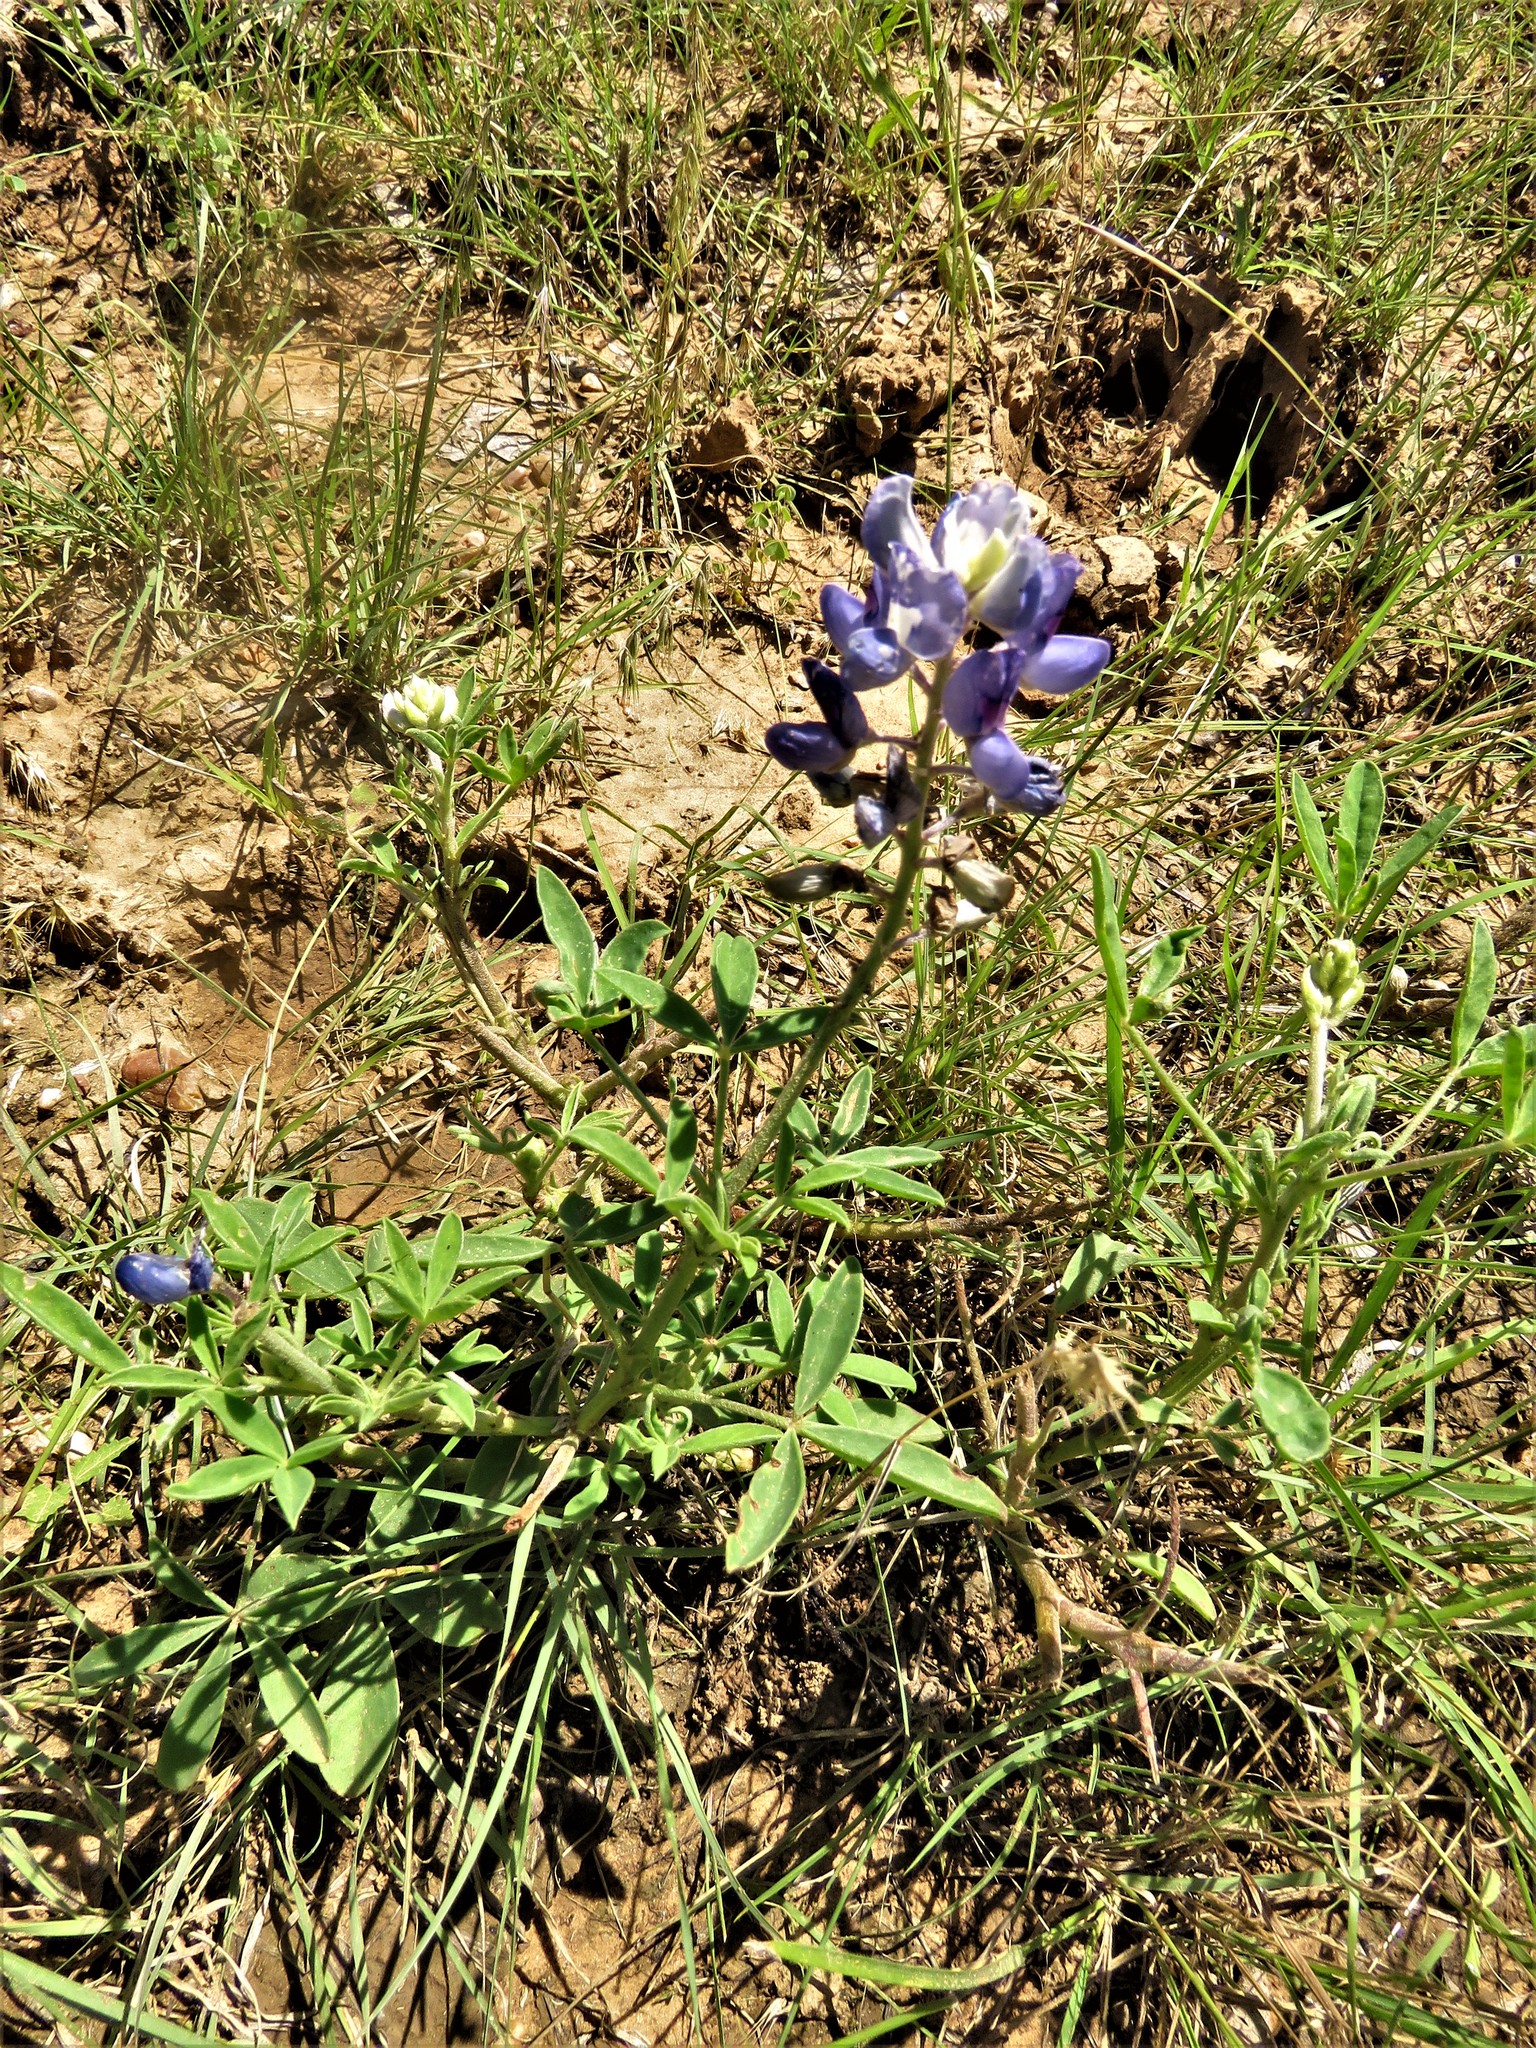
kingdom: Plantae
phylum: Tracheophyta
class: Magnoliopsida
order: Fabales
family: Fabaceae
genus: Lupinus
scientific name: Lupinus texensis
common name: Texas bluebonnet
